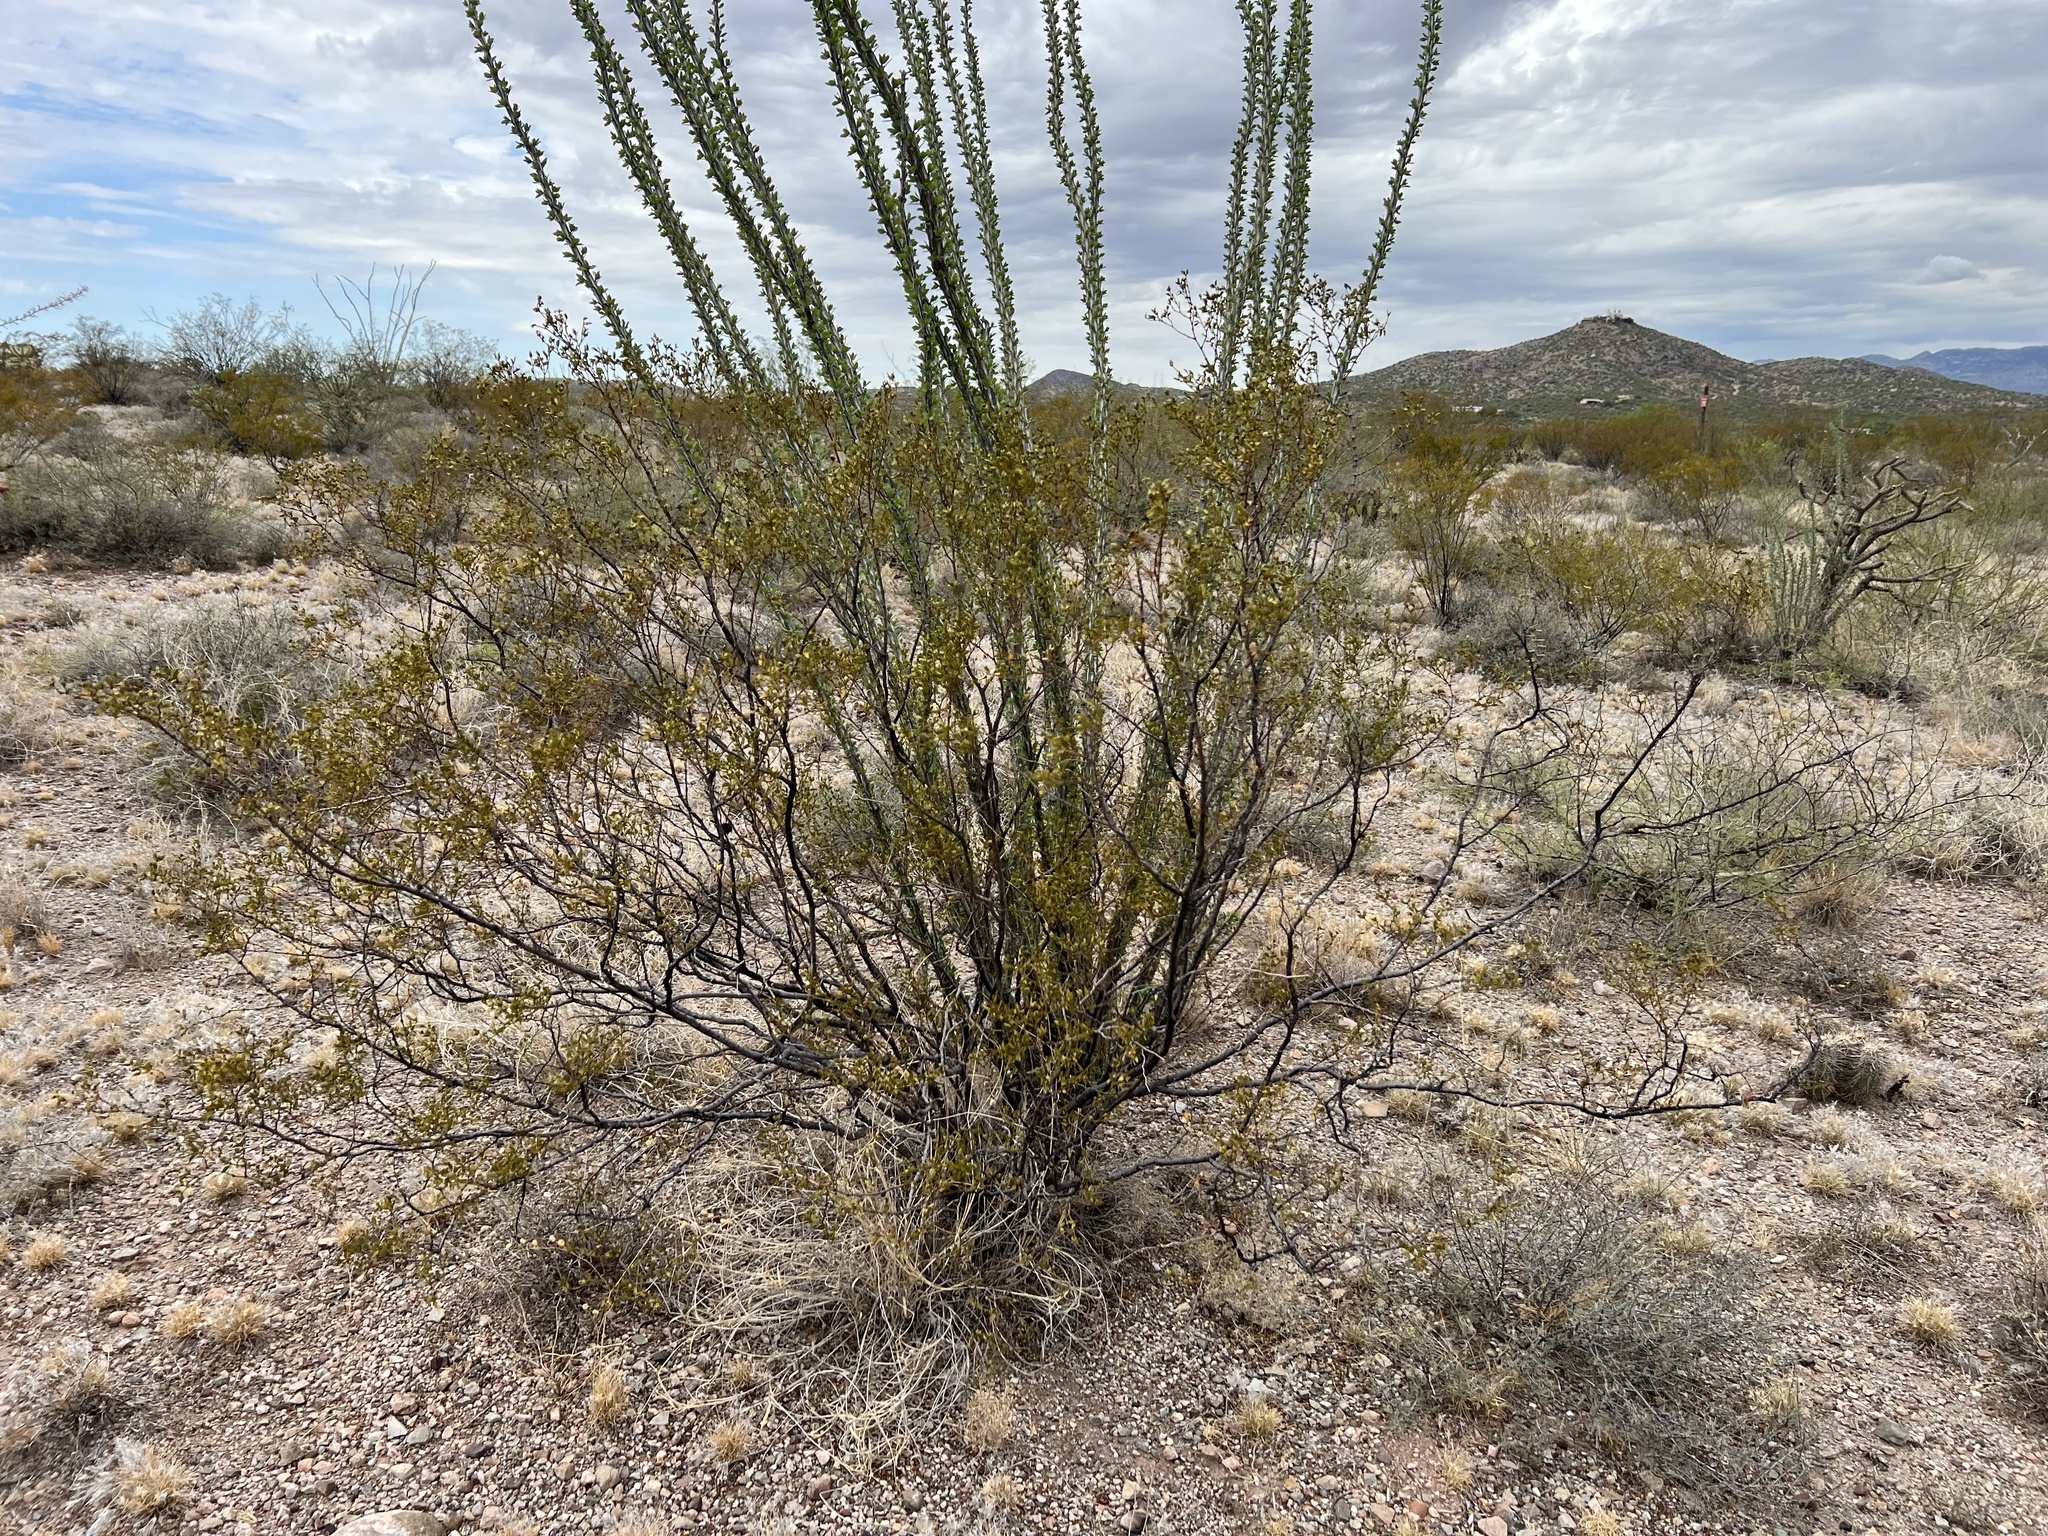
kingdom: Plantae
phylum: Tracheophyta
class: Magnoliopsida
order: Zygophyllales
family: Zygophyllaceae
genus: Larrea
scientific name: Larrea tridentata
